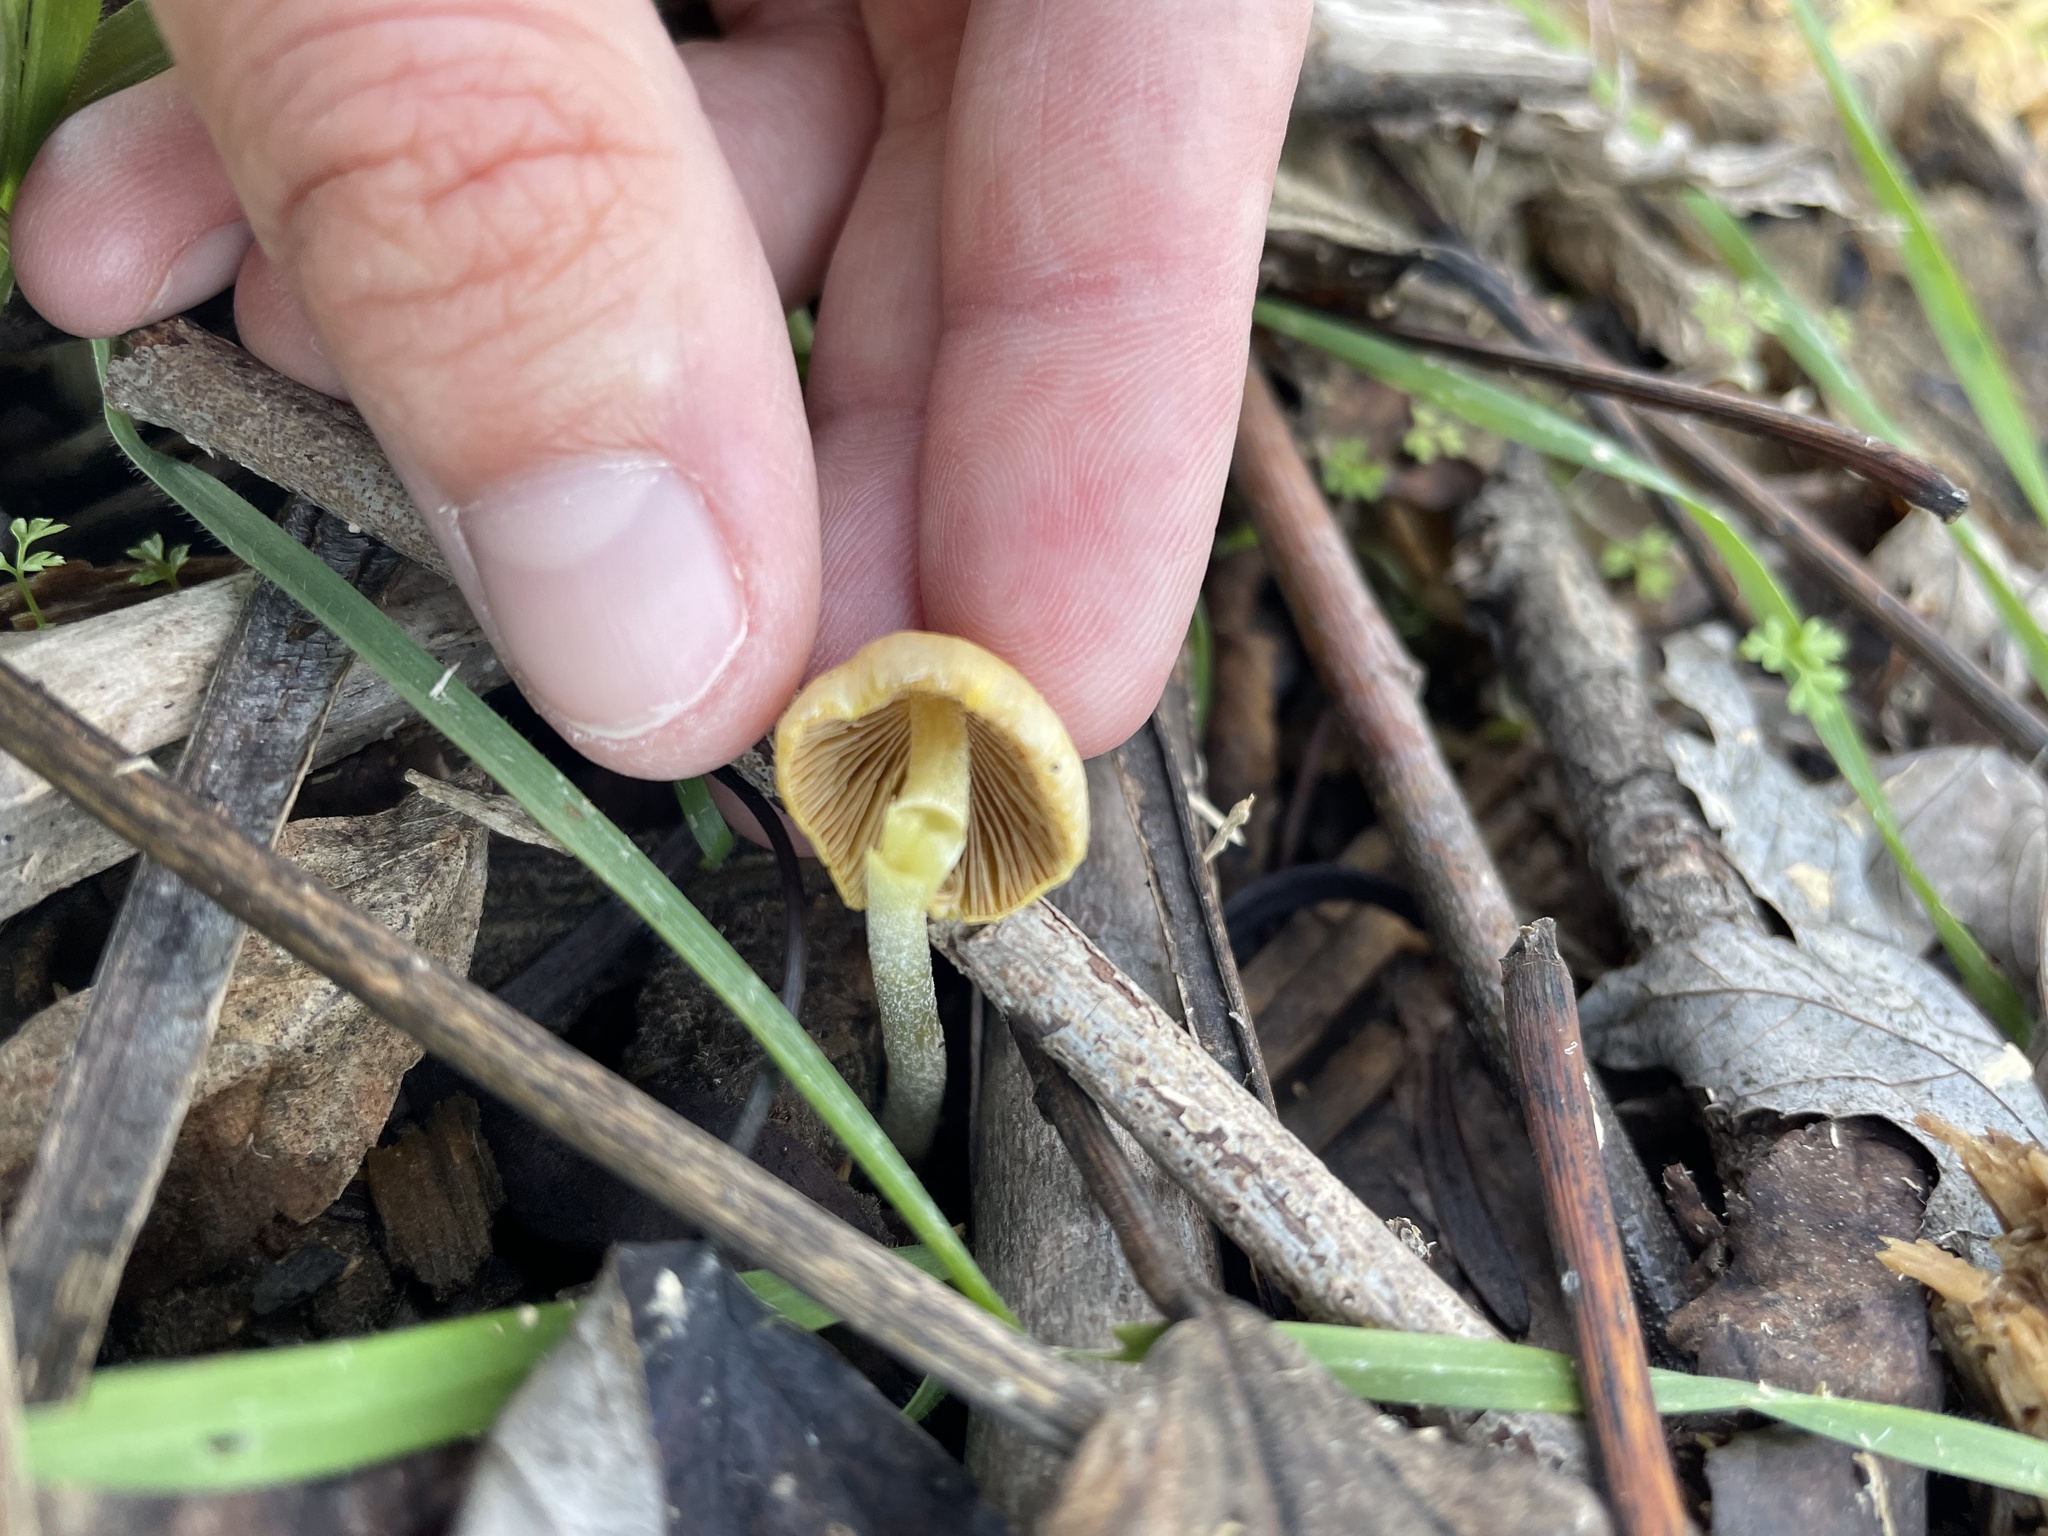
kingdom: Fungi
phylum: Basidiomycota
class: Agaricomycetes
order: Agaricales
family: Bolbitiaceae
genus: Bolbitius
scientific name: Bolbitius titubans
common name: Yellow fieldcap
